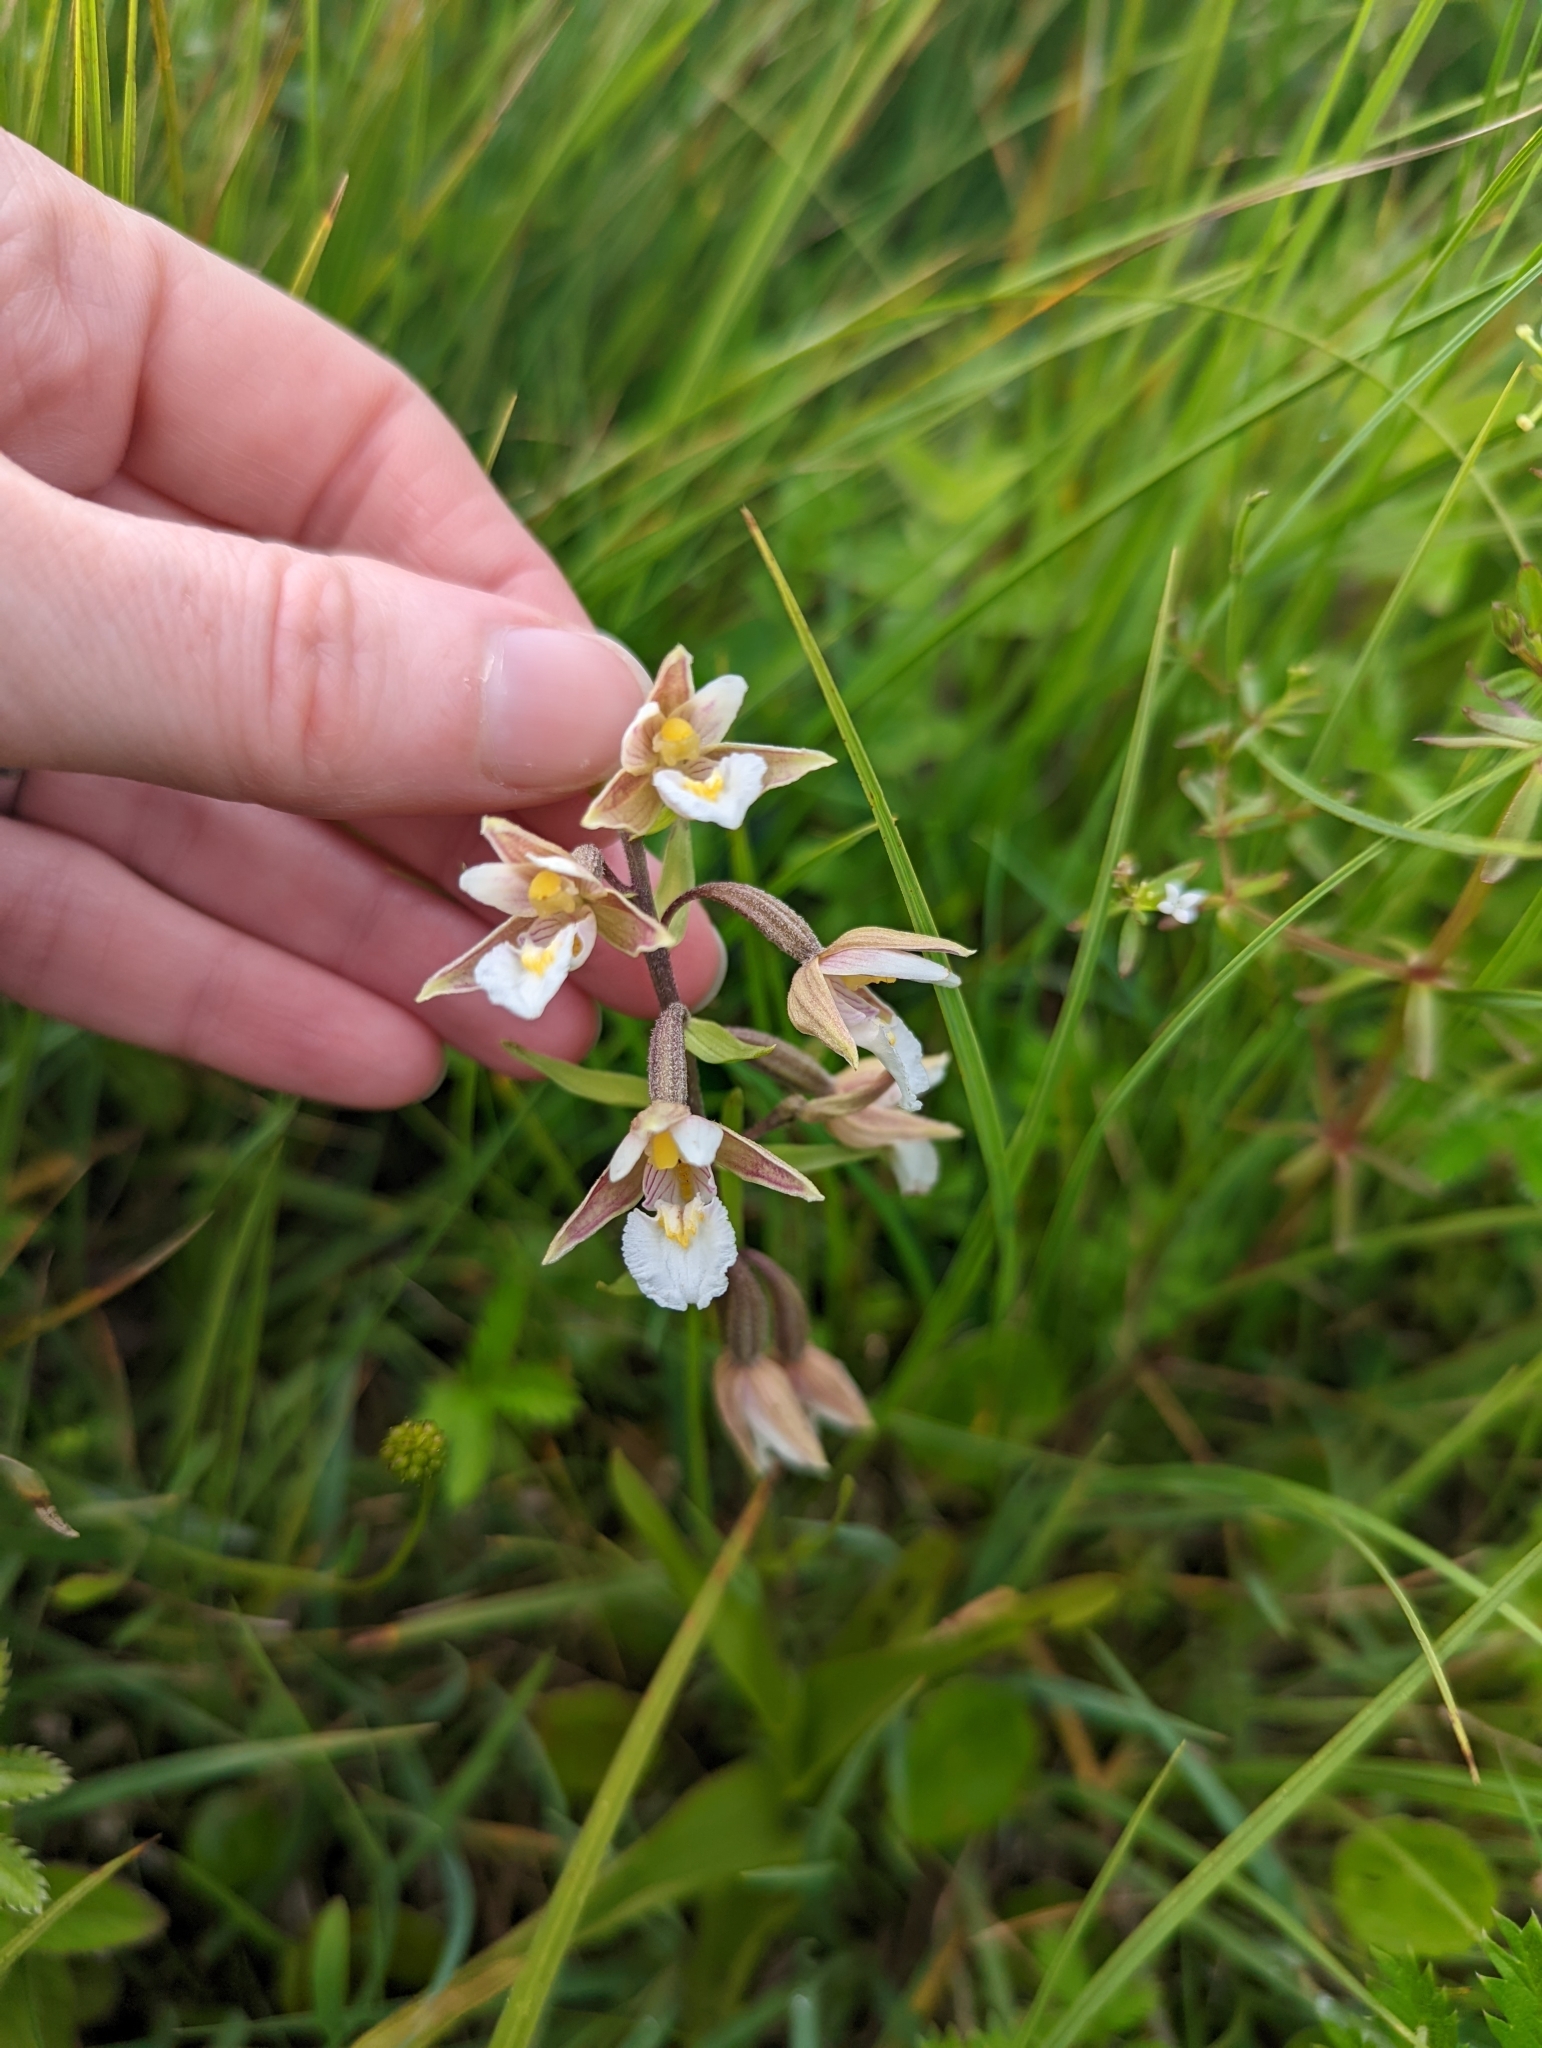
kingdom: Plantae
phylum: Tracheophyta
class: Liliopsida
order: Asparagales
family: Orchidaceae
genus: Epipactis
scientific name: Epipactis palustris
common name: Marsh helleborine
